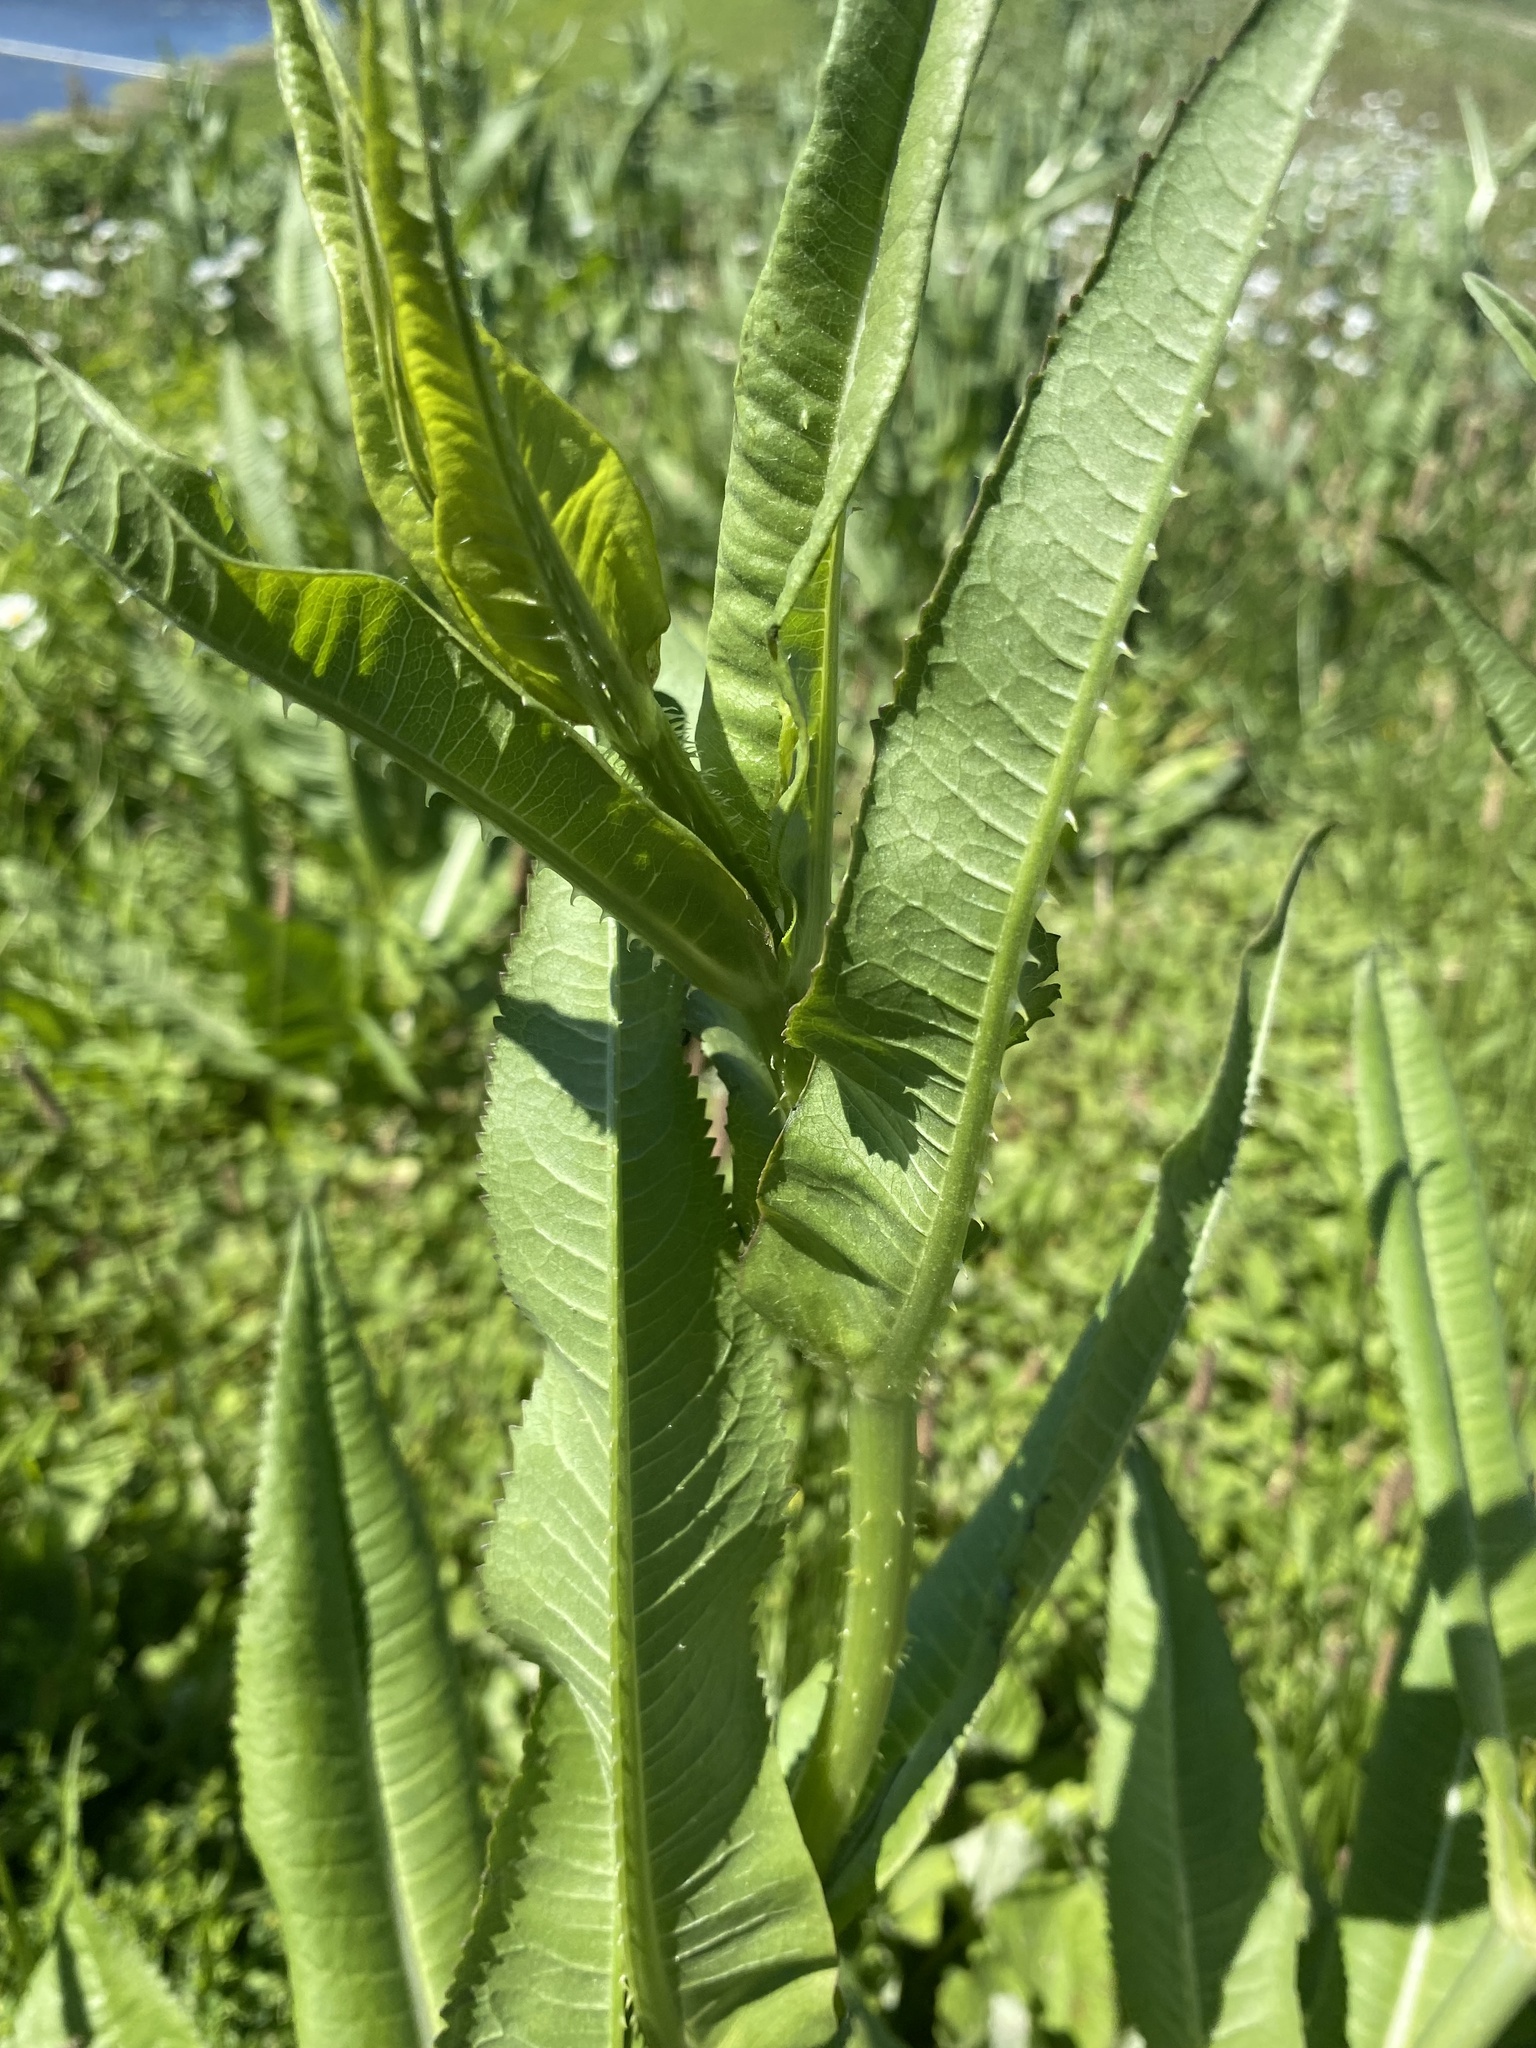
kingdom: Plantae
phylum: Tracheophyta
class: Magnoliopsida
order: Dipsacales
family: Caprifoliaceae
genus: Dipsacus
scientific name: Dipsacus fullonum
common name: Teasel
